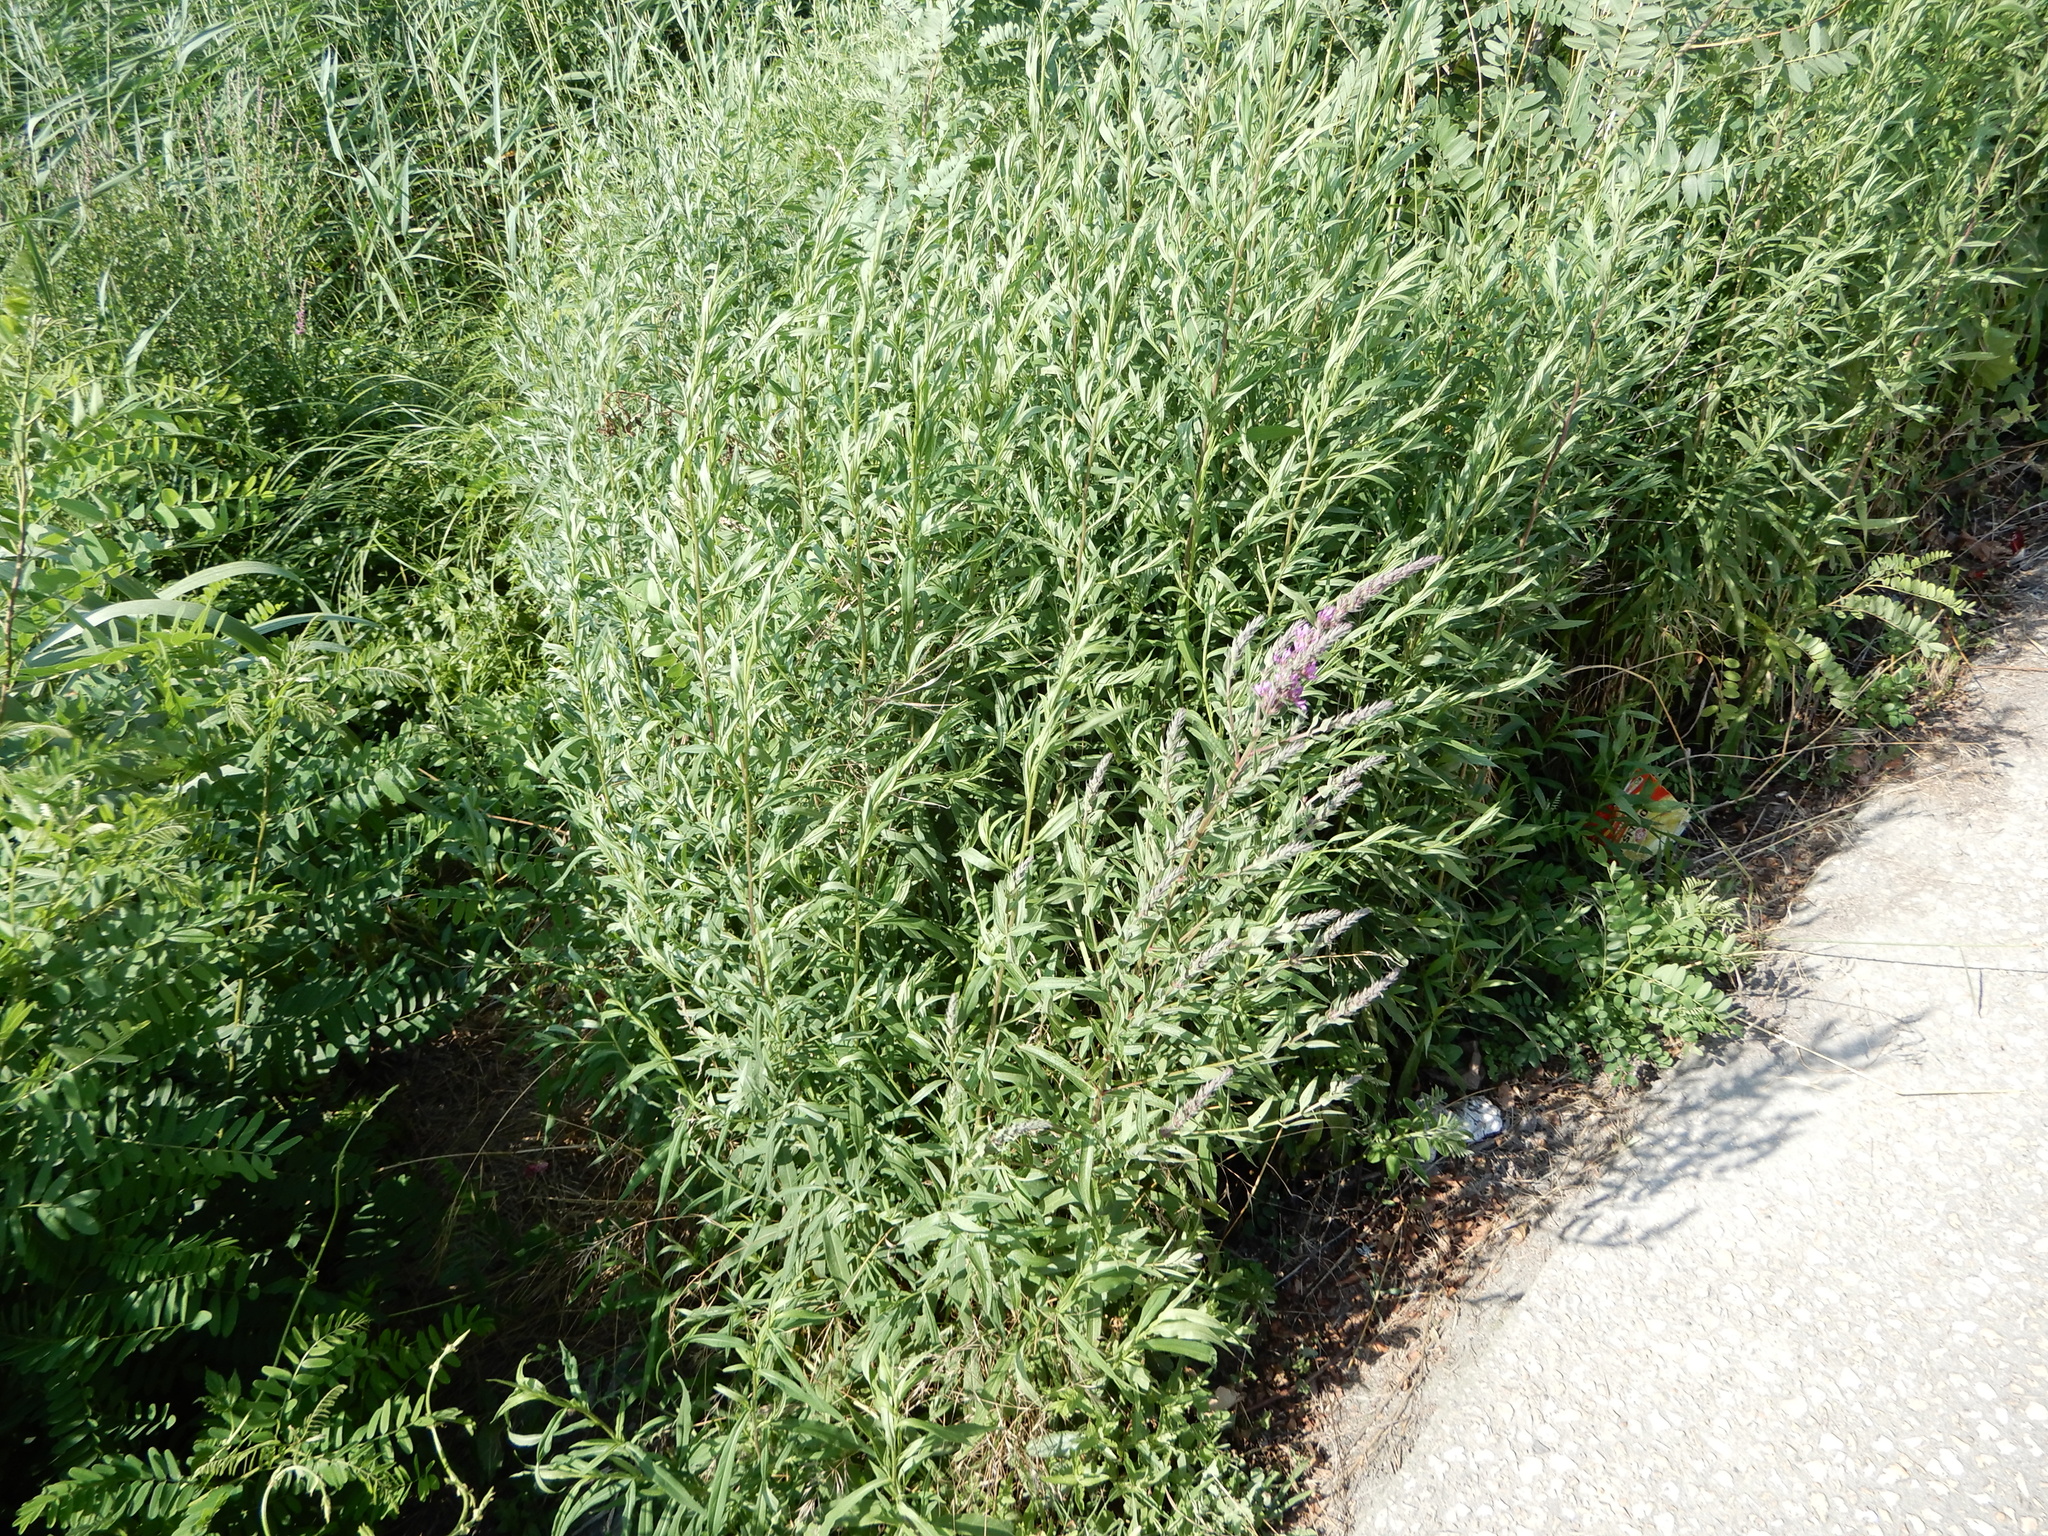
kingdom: Plantae
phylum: Tracheophyta
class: Magnoliopsida
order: Myrtales
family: Lythraceae
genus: Lythrum
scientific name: Lythrum salicaria
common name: Purple loosestrife
